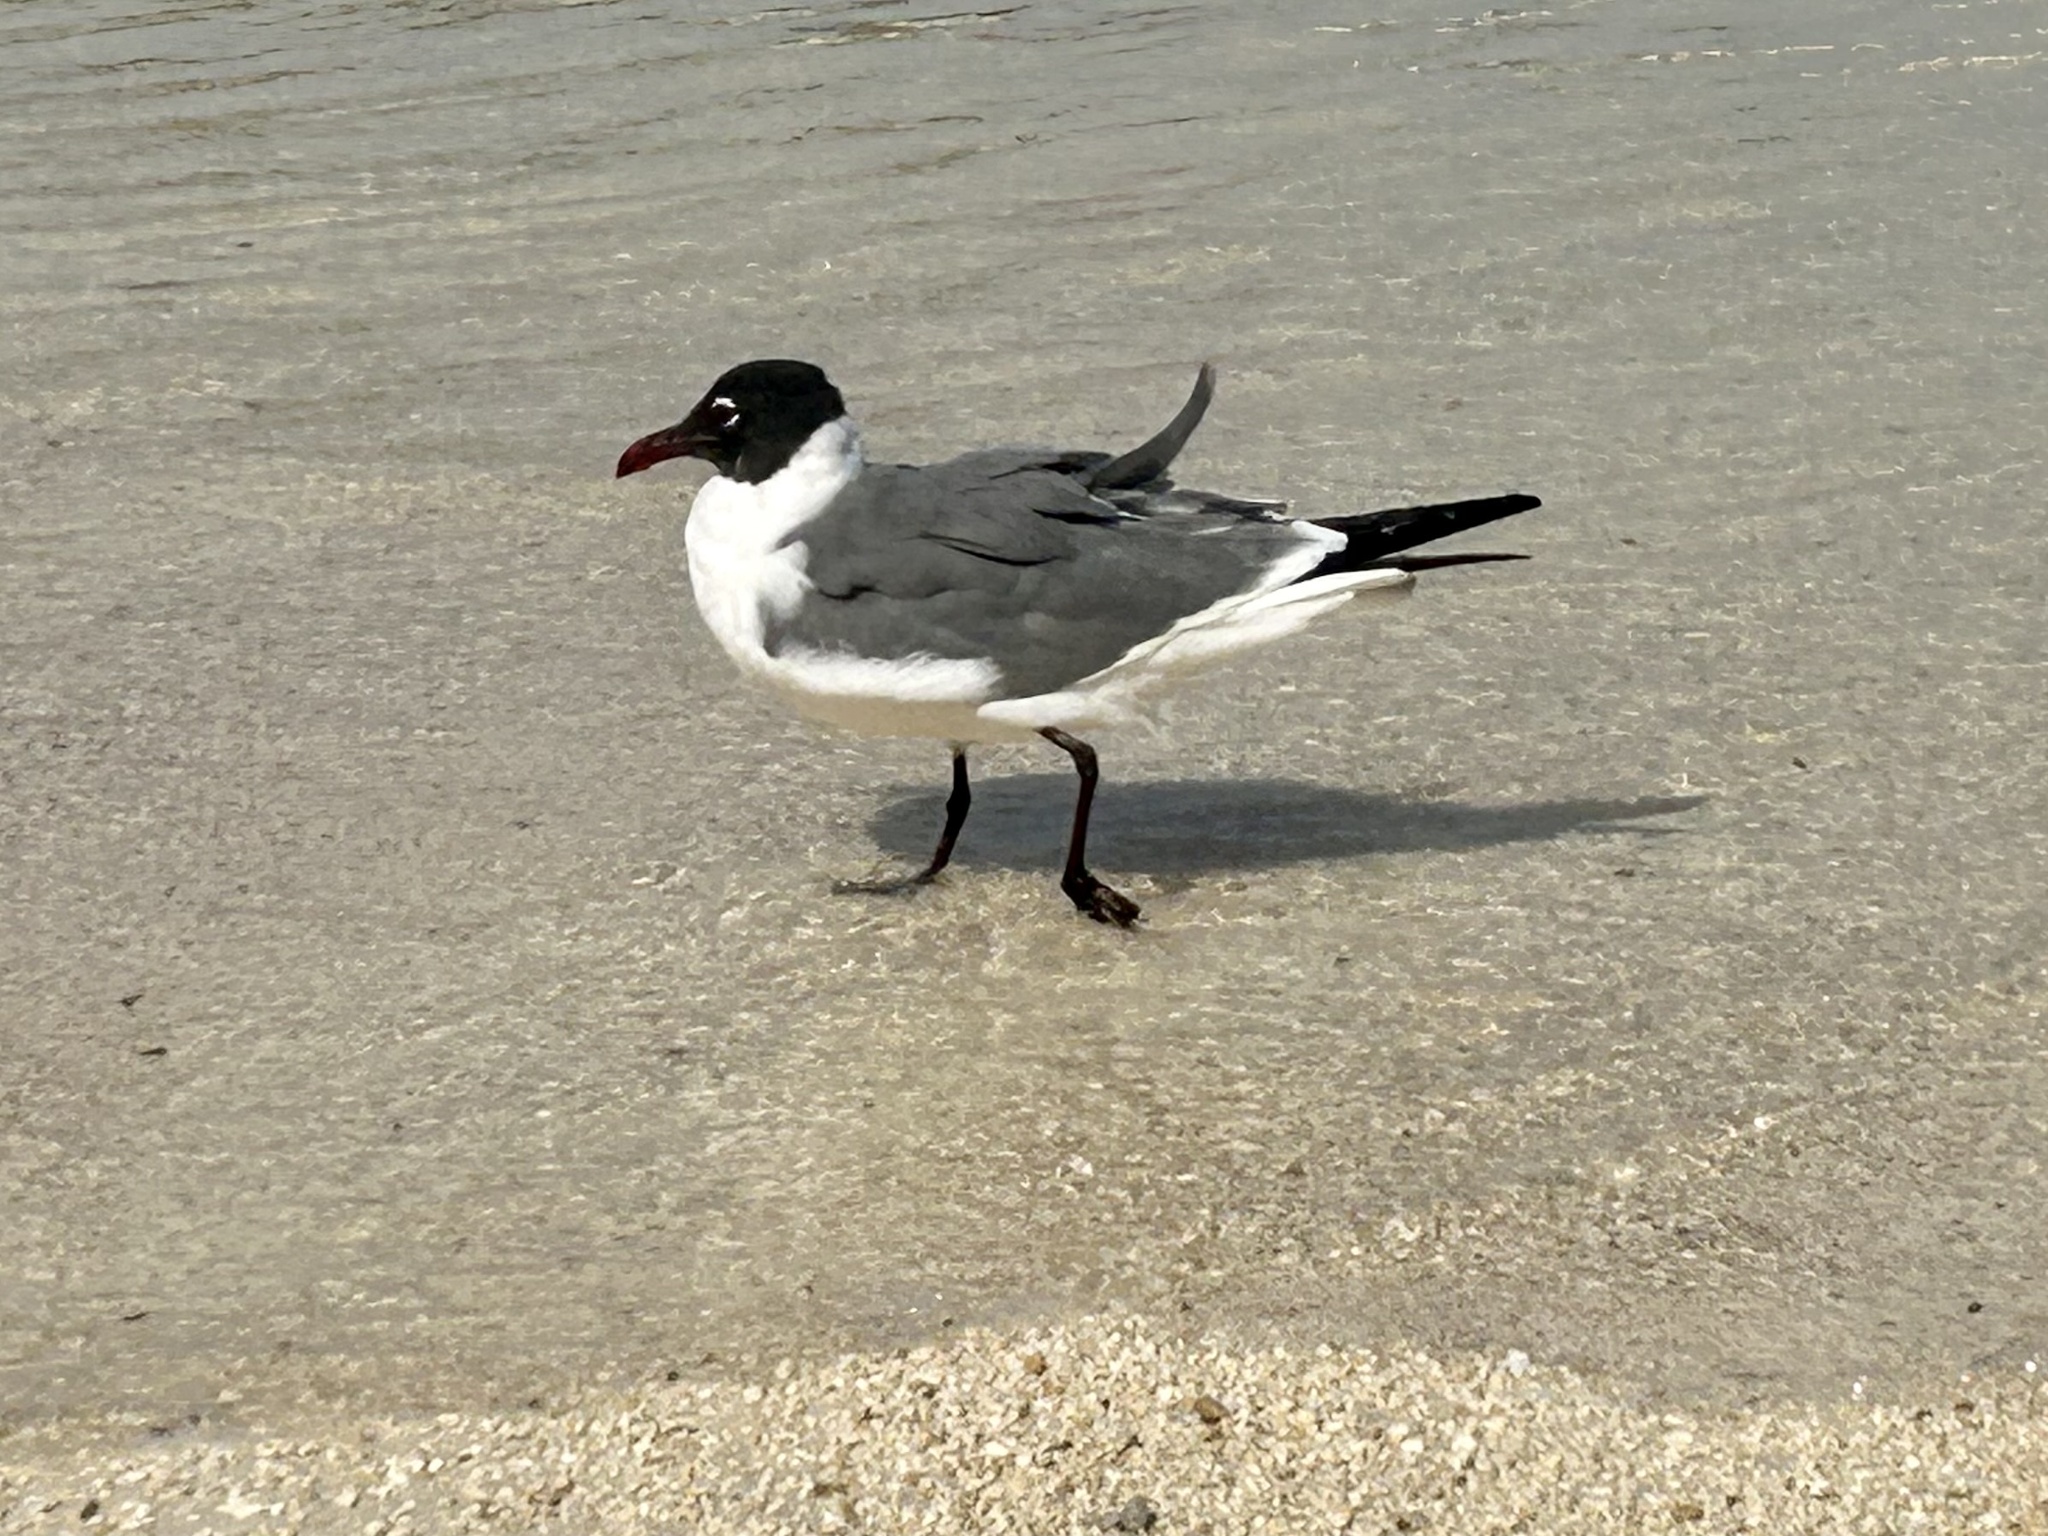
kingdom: Animalia
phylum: Chordata
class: Aves
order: Charadriiformes
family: Laridae
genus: Leucophaeus
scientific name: Leucophaeus atricilla
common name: Laughing gull
